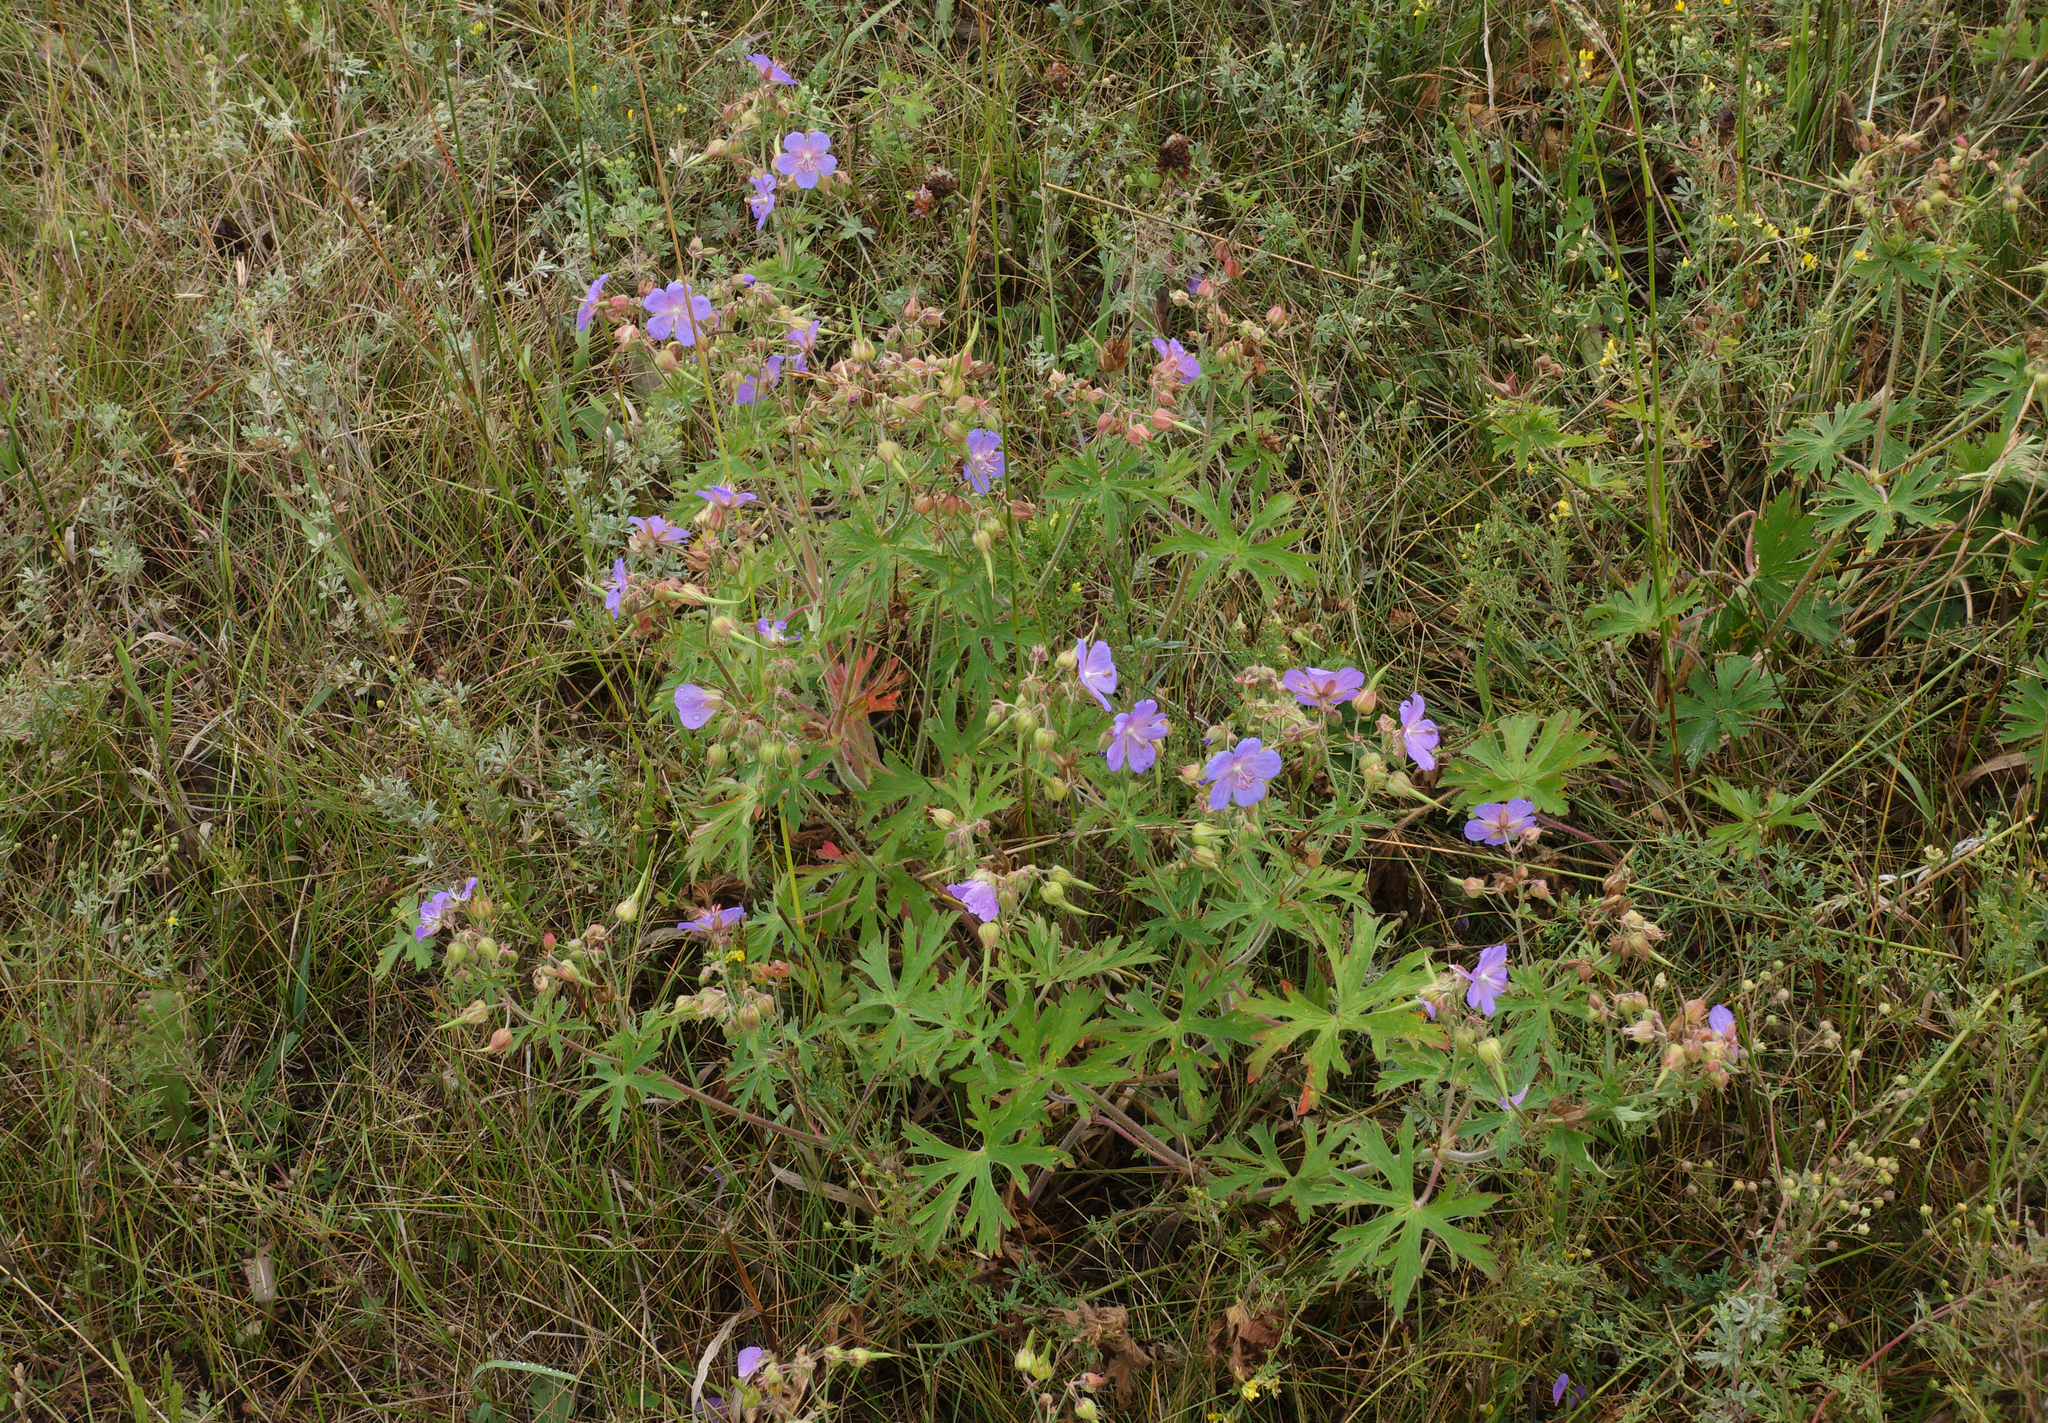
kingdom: Plantae
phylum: Tracheophyta
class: Magnoliopsida
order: Geraniales
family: Geraniaceae
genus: Geranium
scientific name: Geranium pratense
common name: Meadow crane's-bill
